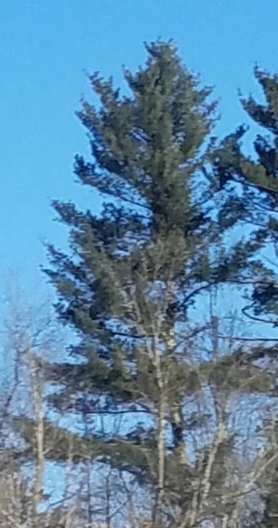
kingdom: Plantae
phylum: Tracheophyta
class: Pinopsida
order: Pinales
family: Pinaceae
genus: Pinus
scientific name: Pinus strobus
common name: Weymouth pine
